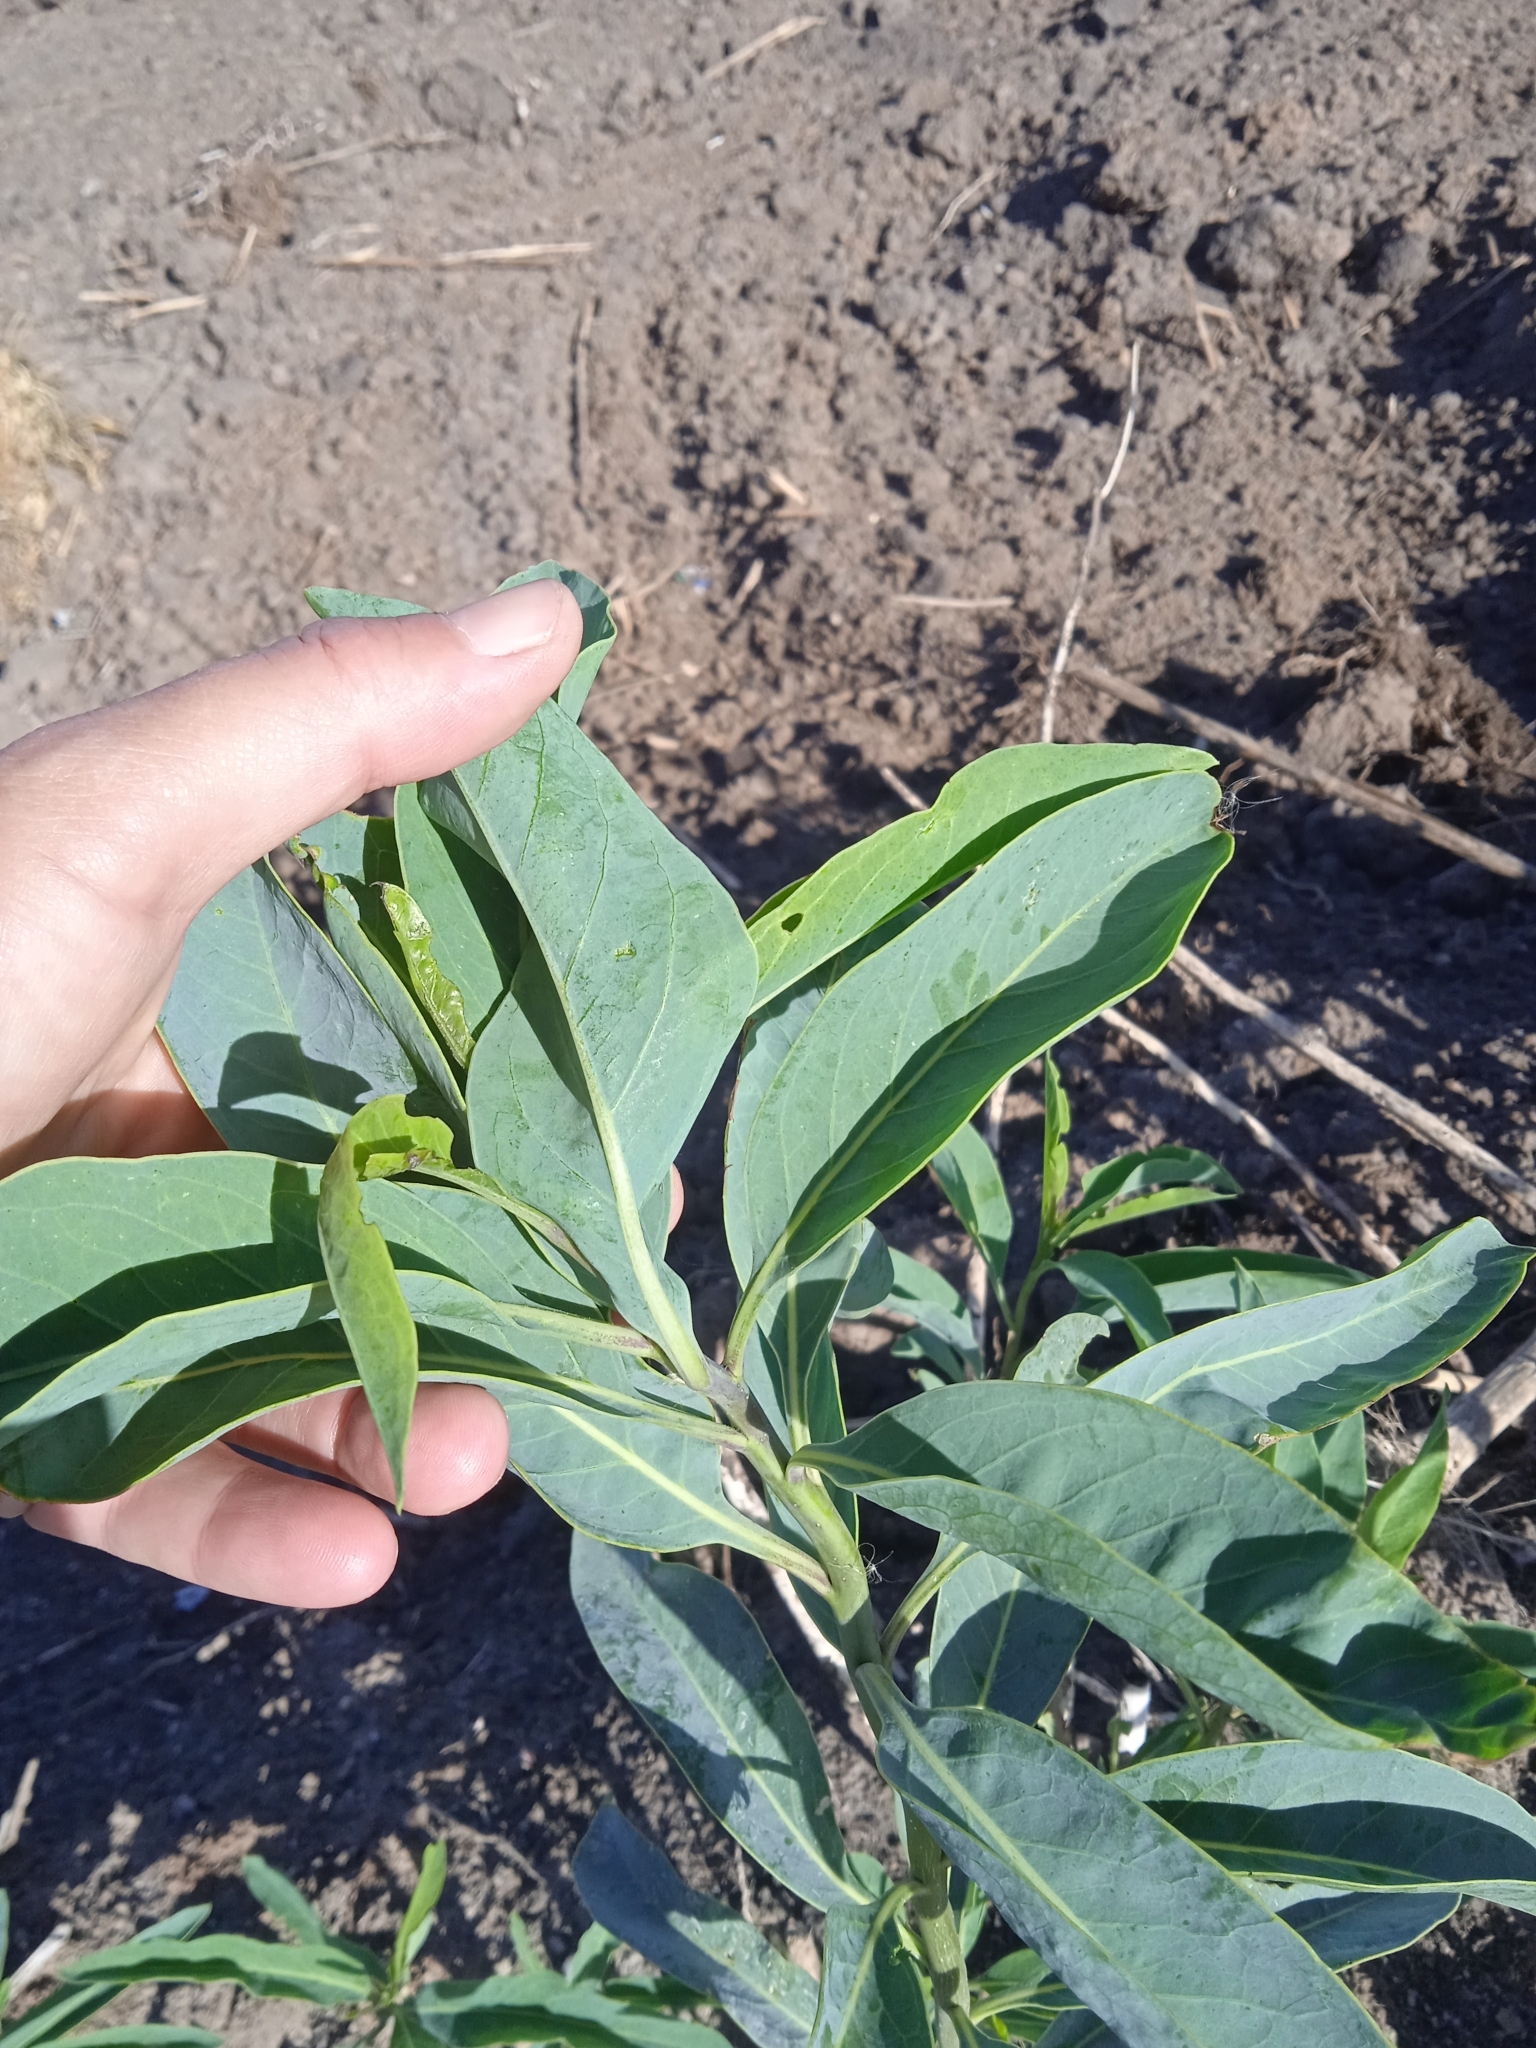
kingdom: Plantae
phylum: Tracheophyta
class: Magnoliopsida
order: Solanales
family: Solanaceae
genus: Solanum
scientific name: Solanum glaucophyllum
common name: Waxyleaf nightshade
